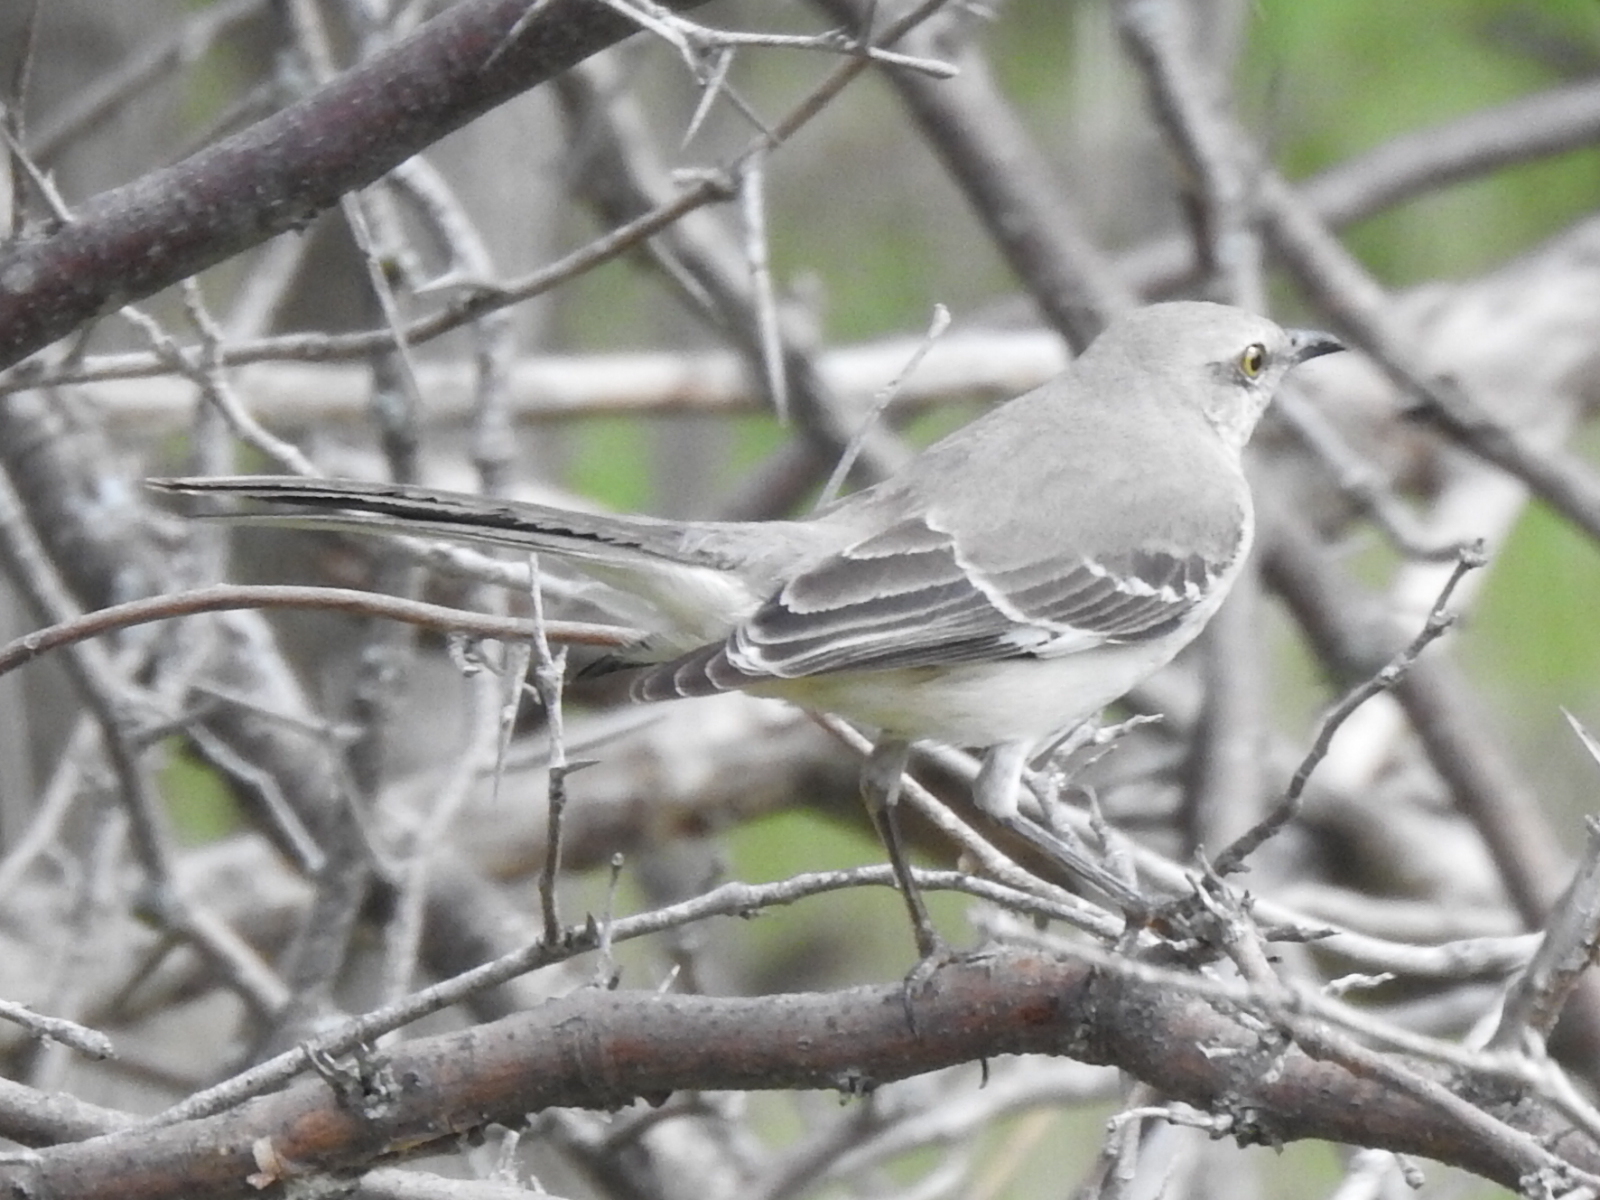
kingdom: Animalia
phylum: Chordata
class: Aves
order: Passeriformes
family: Mimidae
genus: Mimus
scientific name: Mimus polyglottos
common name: Northern mockingbird
